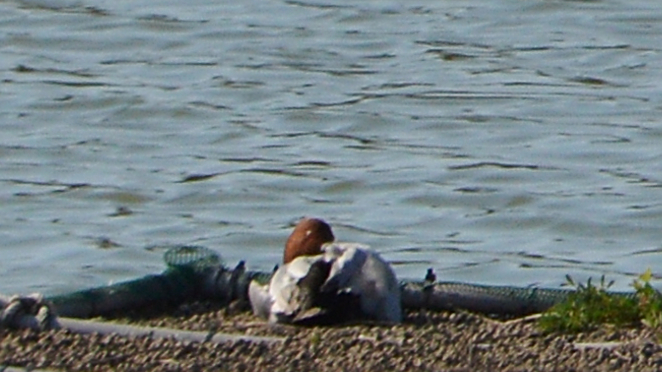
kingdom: Animalia
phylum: Chordata
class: Aves
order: Anseriformes
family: Anatidae
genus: Aythya
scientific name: Aythya ferina
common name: Common pochard
